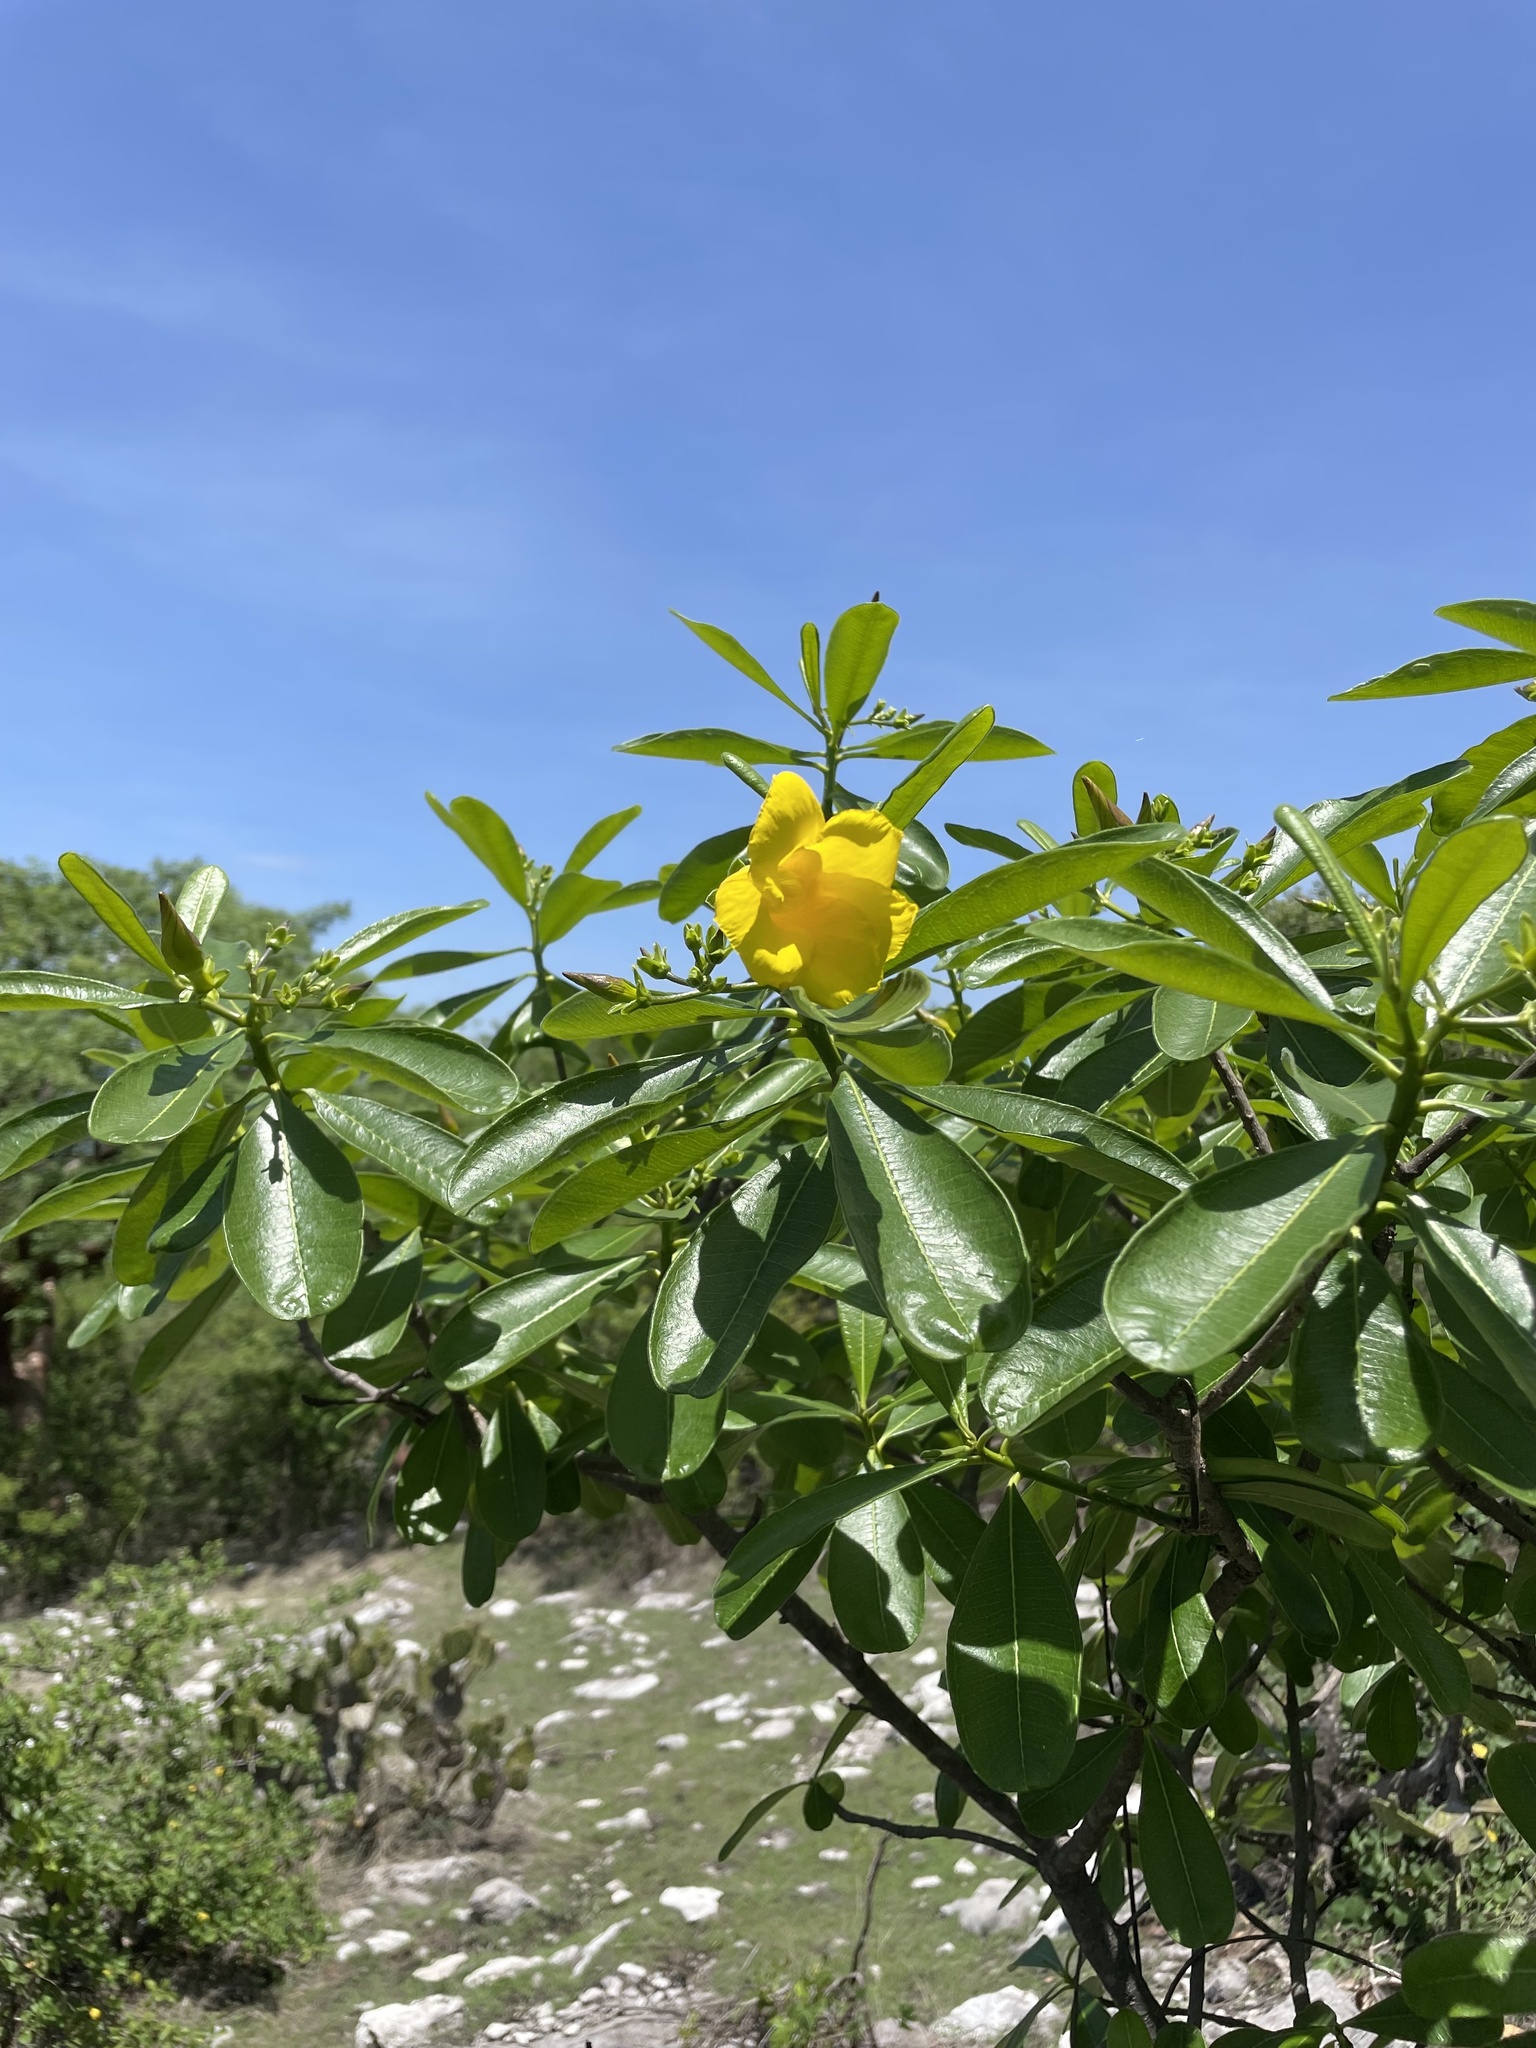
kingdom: Plantae
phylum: Tracheophyta
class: Magnoliopsida
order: Gentianales
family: Apocynaceae
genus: Cascabela
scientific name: Cascabela ovata
